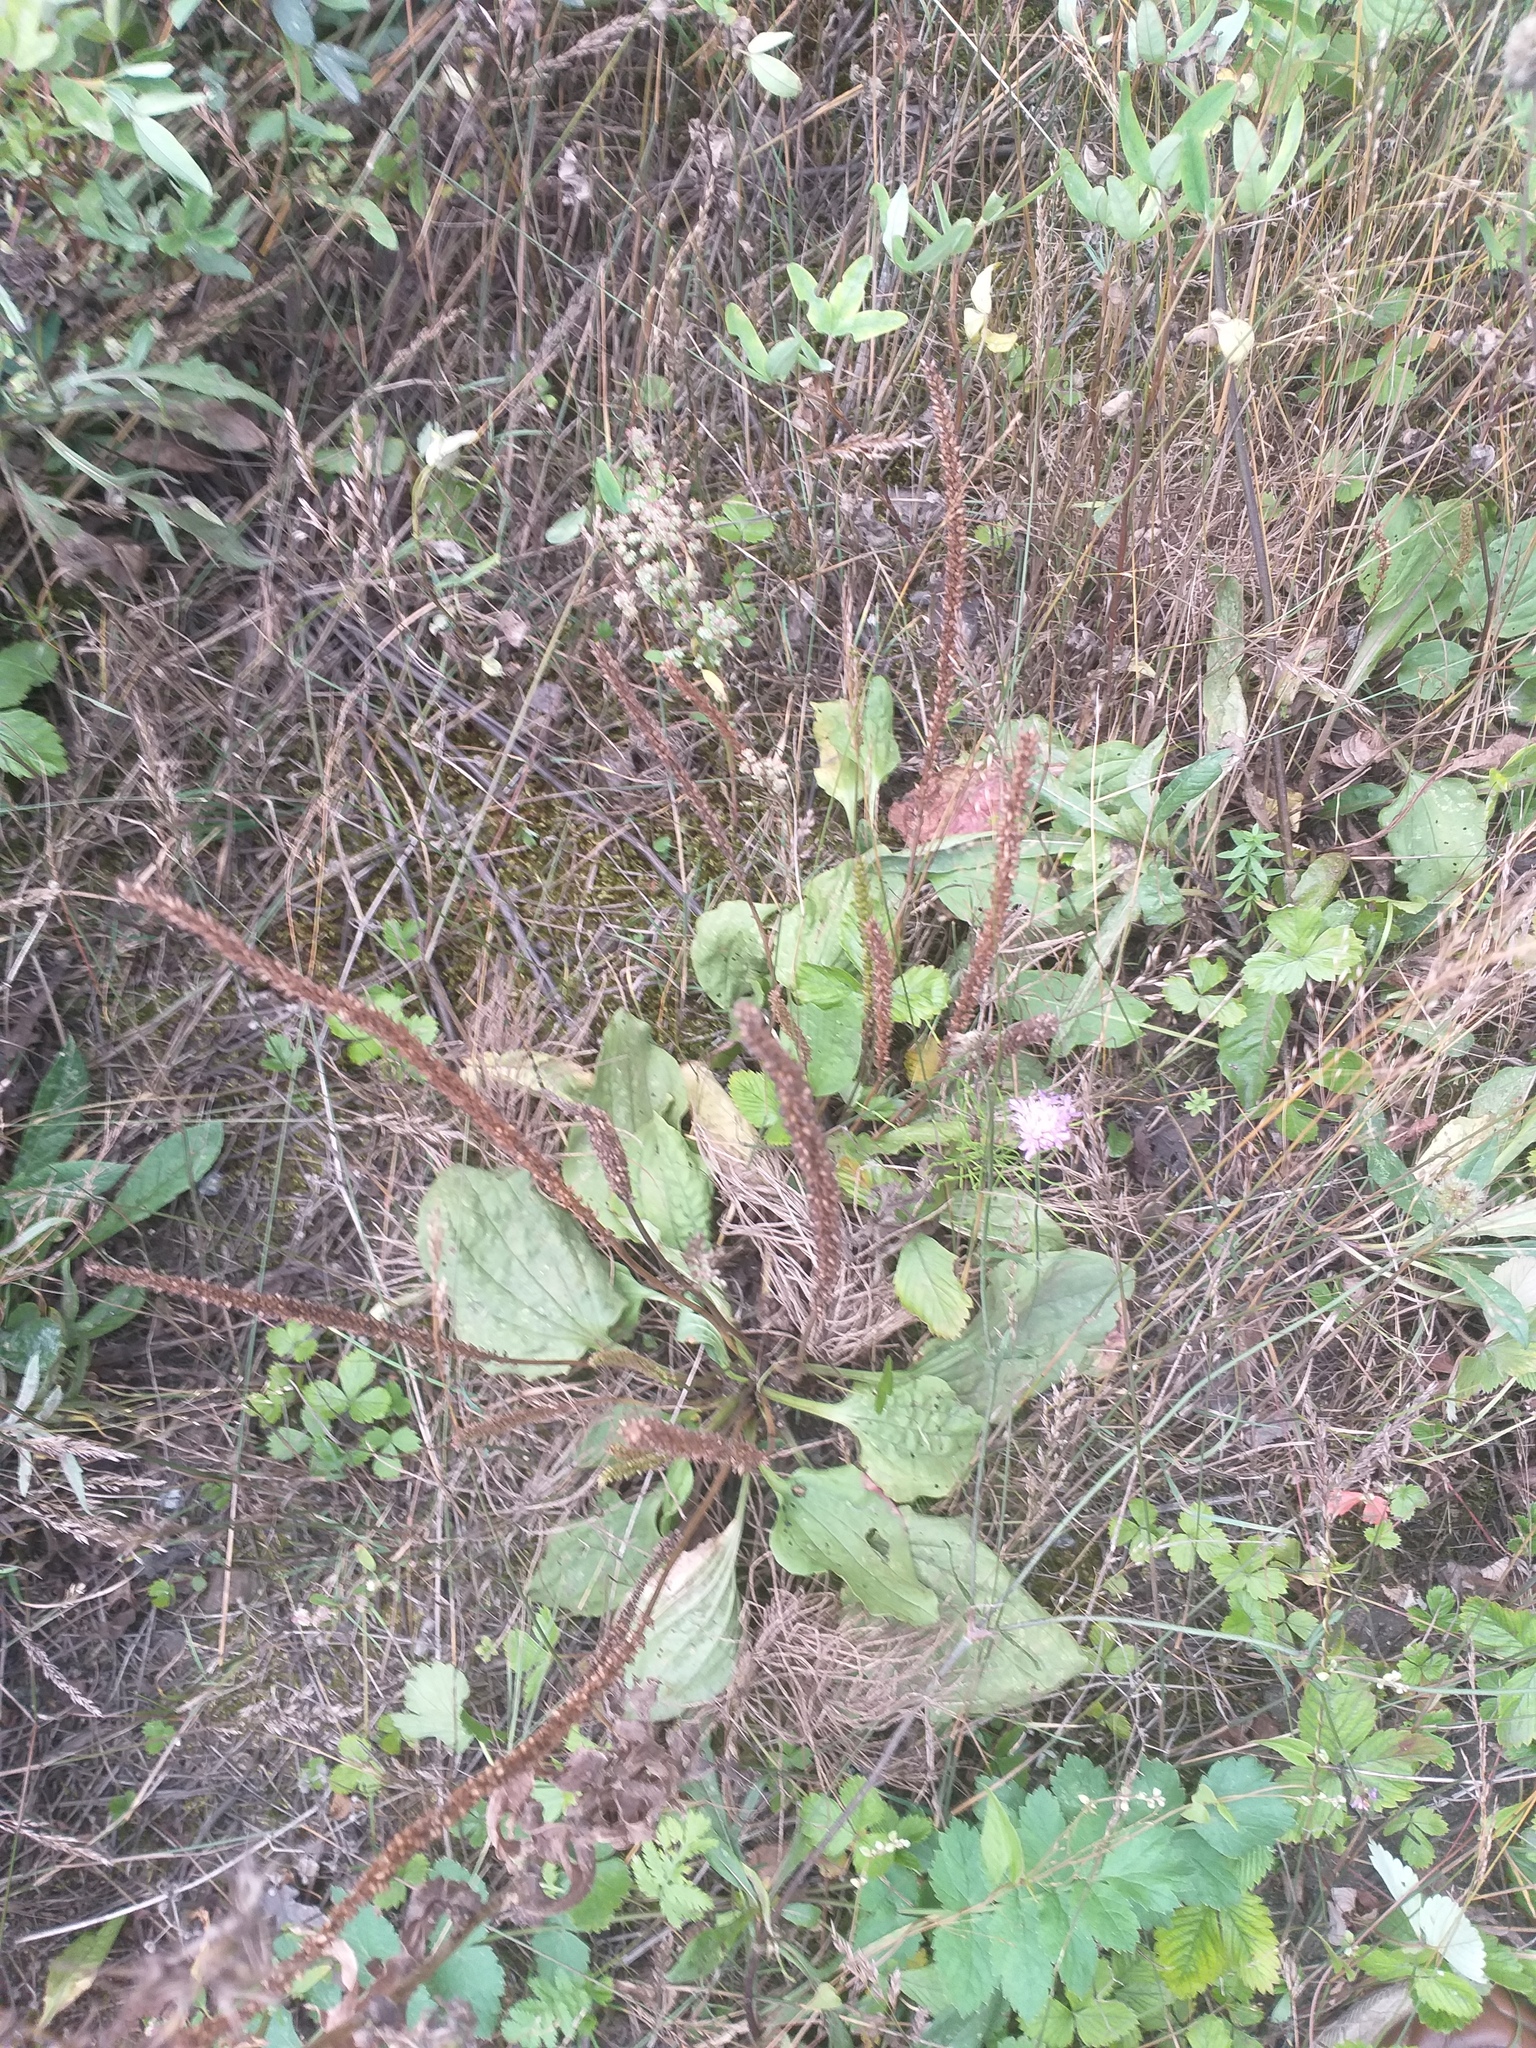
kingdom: Plantae
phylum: Tracheophyta
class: Magnoliopsida
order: Lamiales
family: Plantaginaceae
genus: Plantago
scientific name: Plantago major
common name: Common plantain
